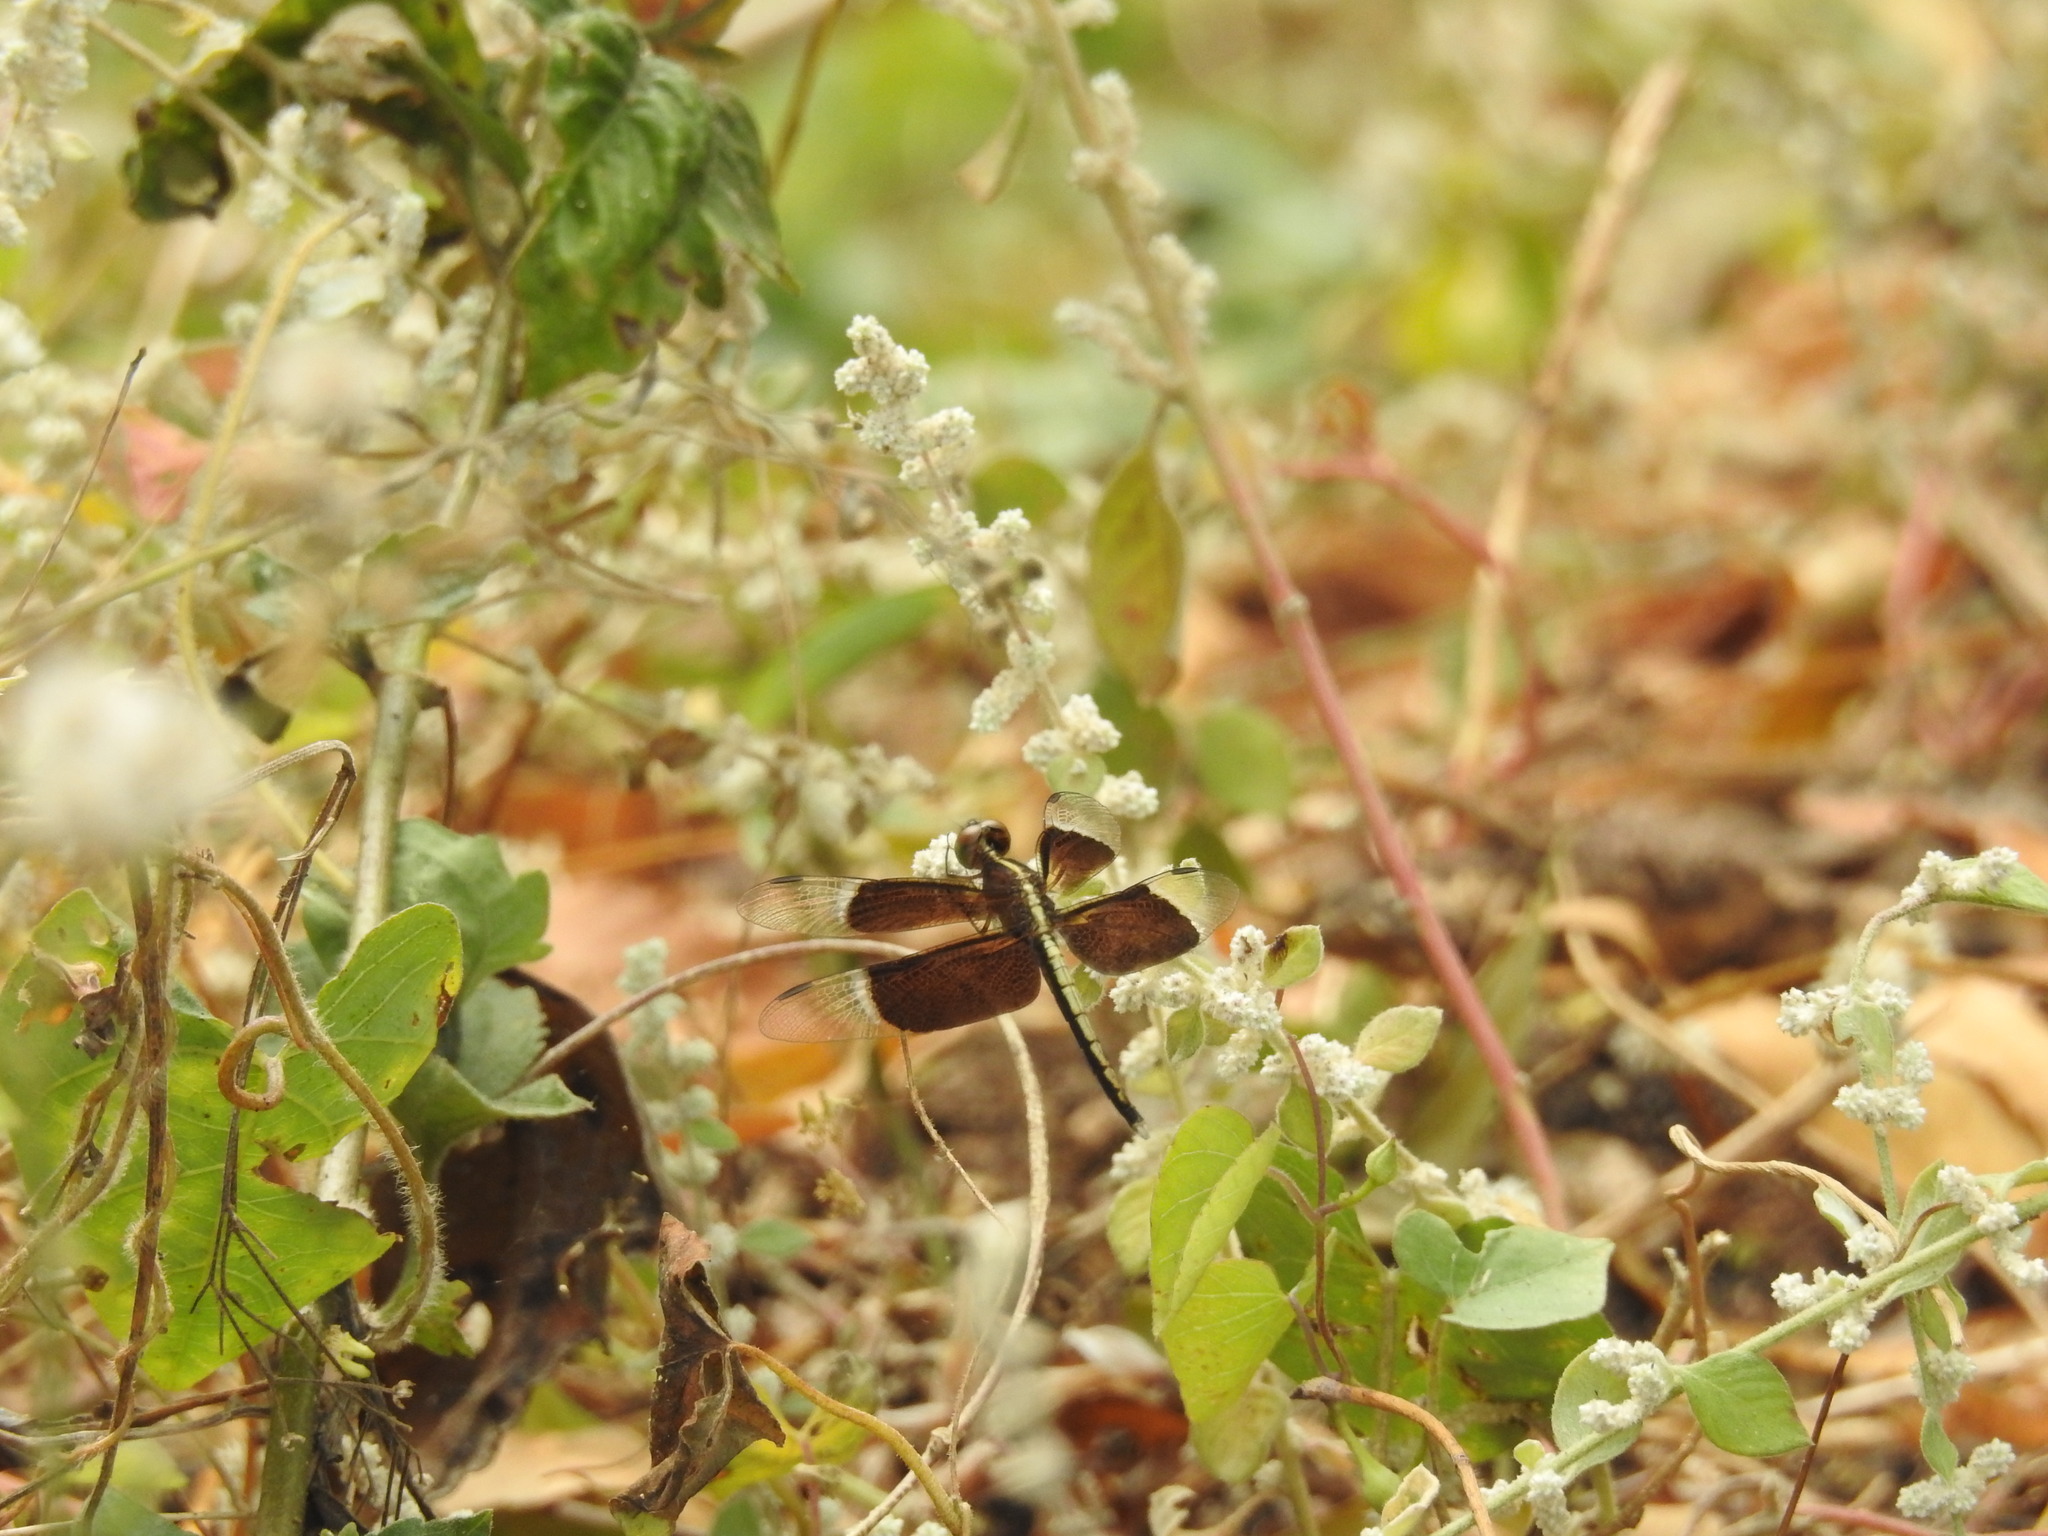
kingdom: Animalia
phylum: Arthropoda
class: Insecta
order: Odonata
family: Libellulidae
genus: Neurothemis
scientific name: Neurothemis tullia
